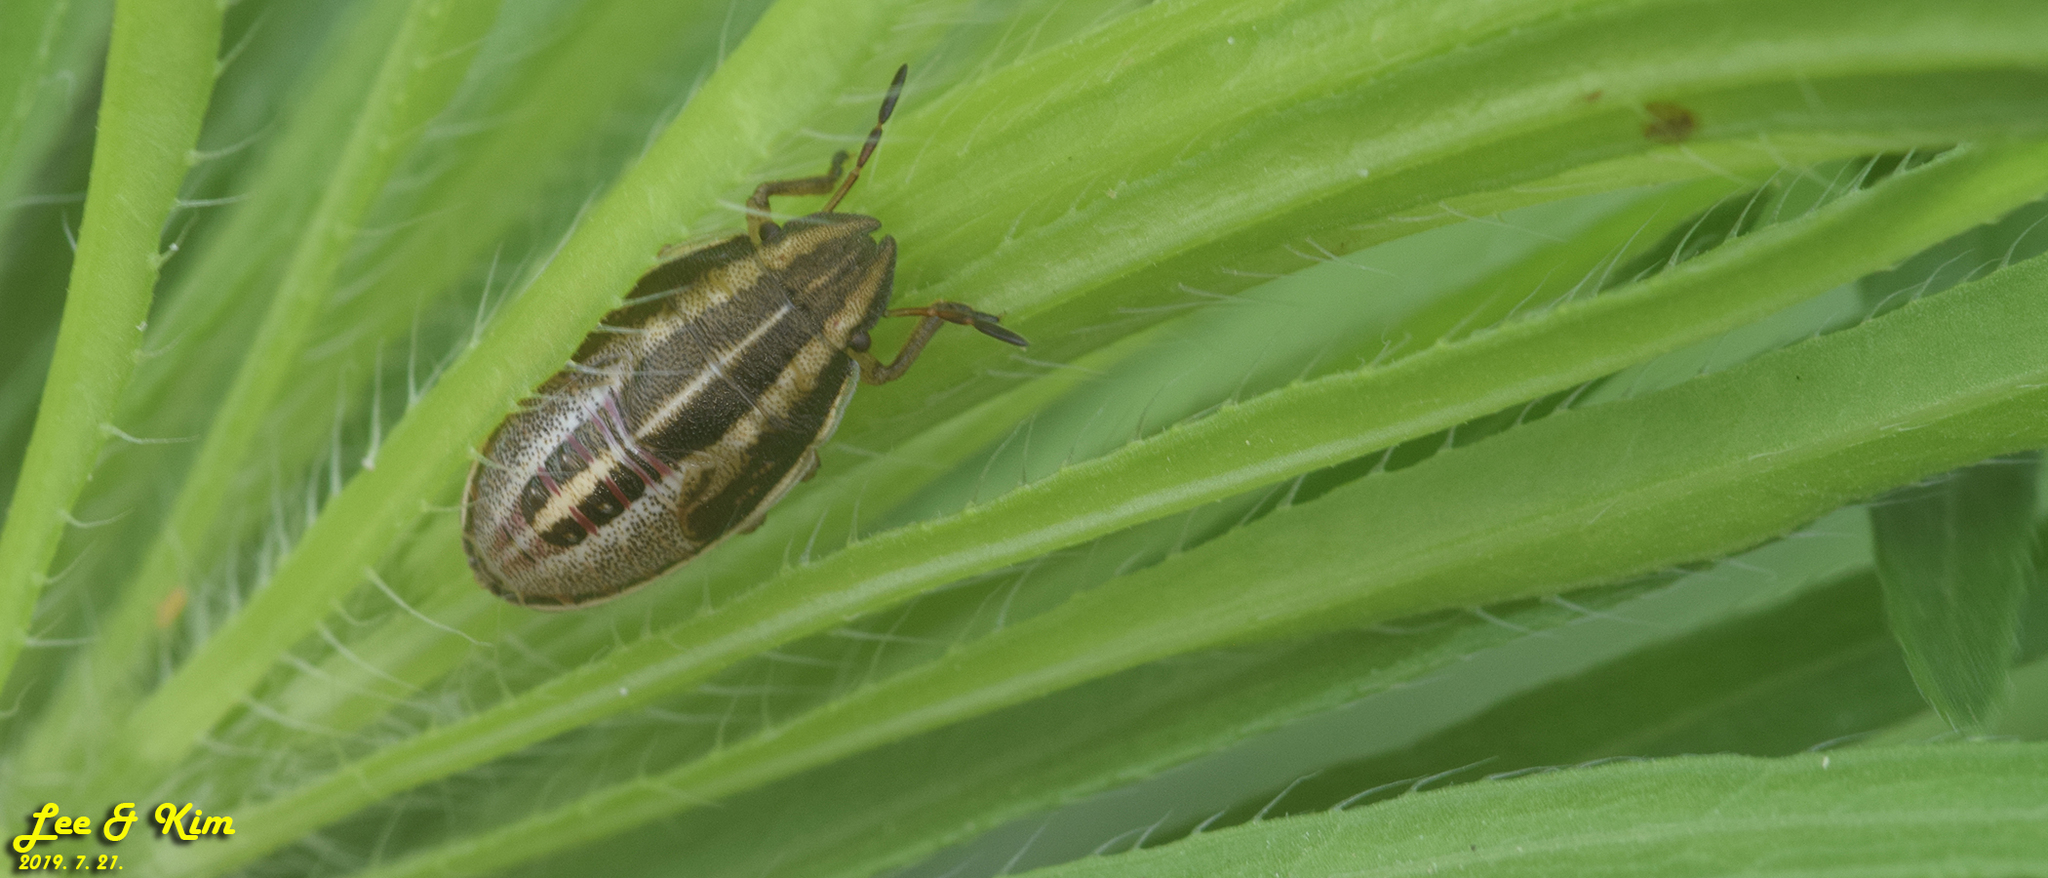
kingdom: Animalia
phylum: Arthropoda
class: Insecta
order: Hemiptera
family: Pentatomidae
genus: Aelia
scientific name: Aelia
